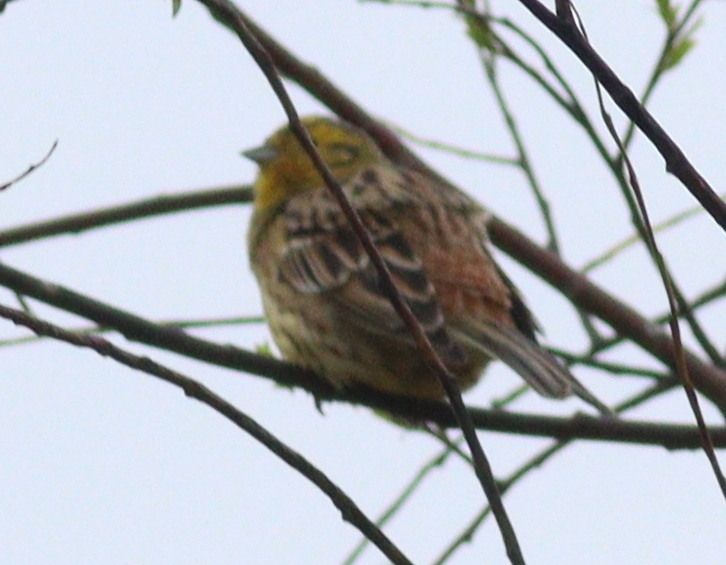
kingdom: Animalia
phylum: Chordata
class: Aves
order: Passeriformes
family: Emberizidae
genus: Emberiza
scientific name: Emberiza citrinella
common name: Yellowhammer
